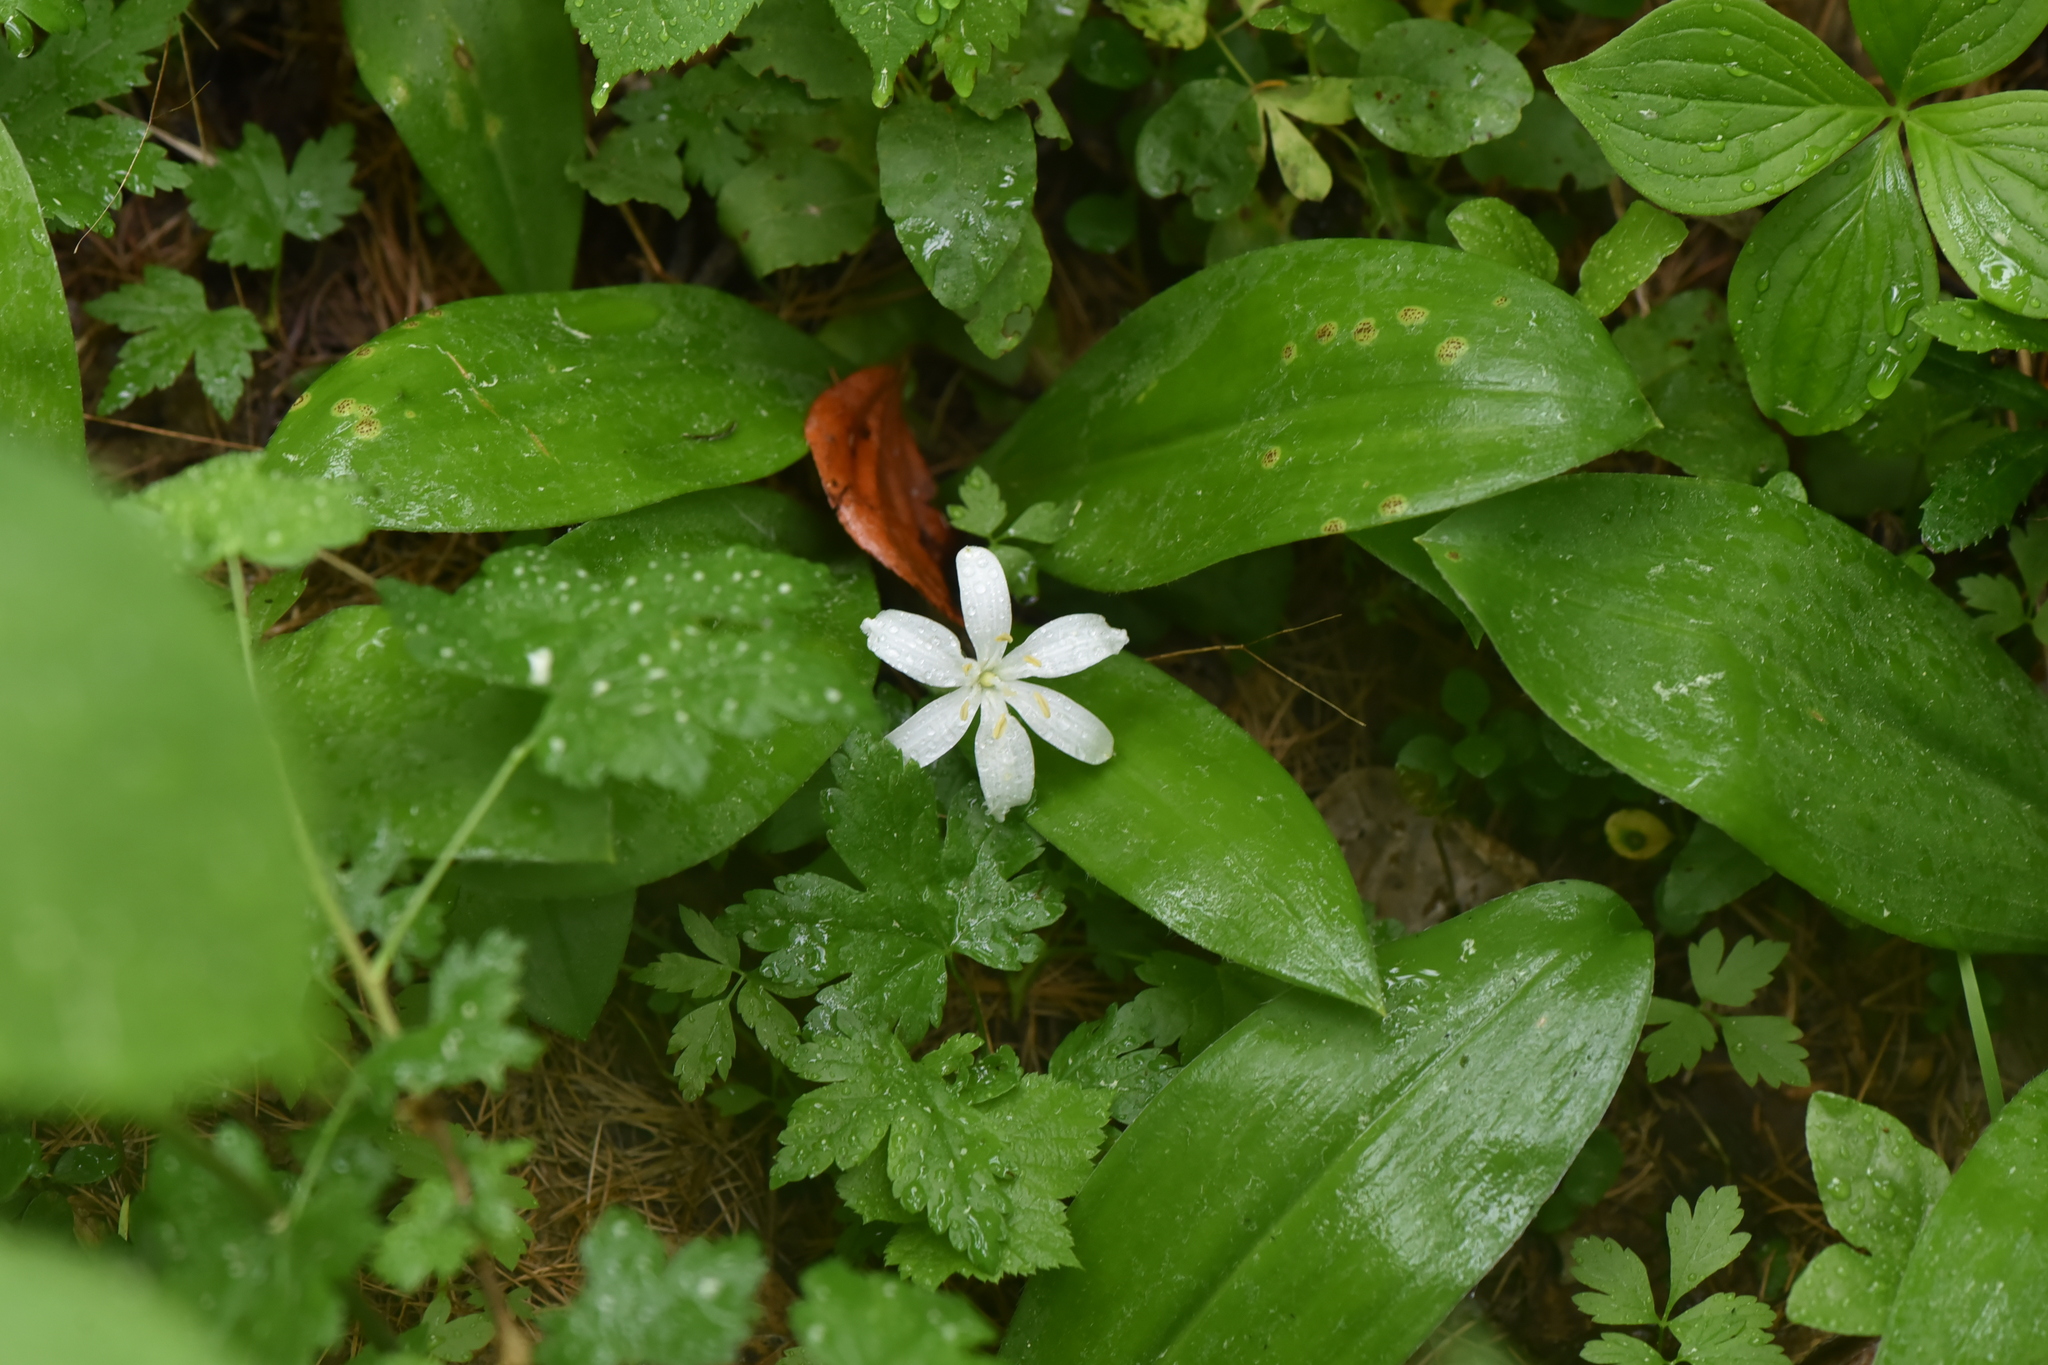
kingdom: Plantae
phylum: Tracheophyta
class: Liliopsida
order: Liliales
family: Liliaceae
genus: Clintonia
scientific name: Clintonia uniflora
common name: Queen's cup
